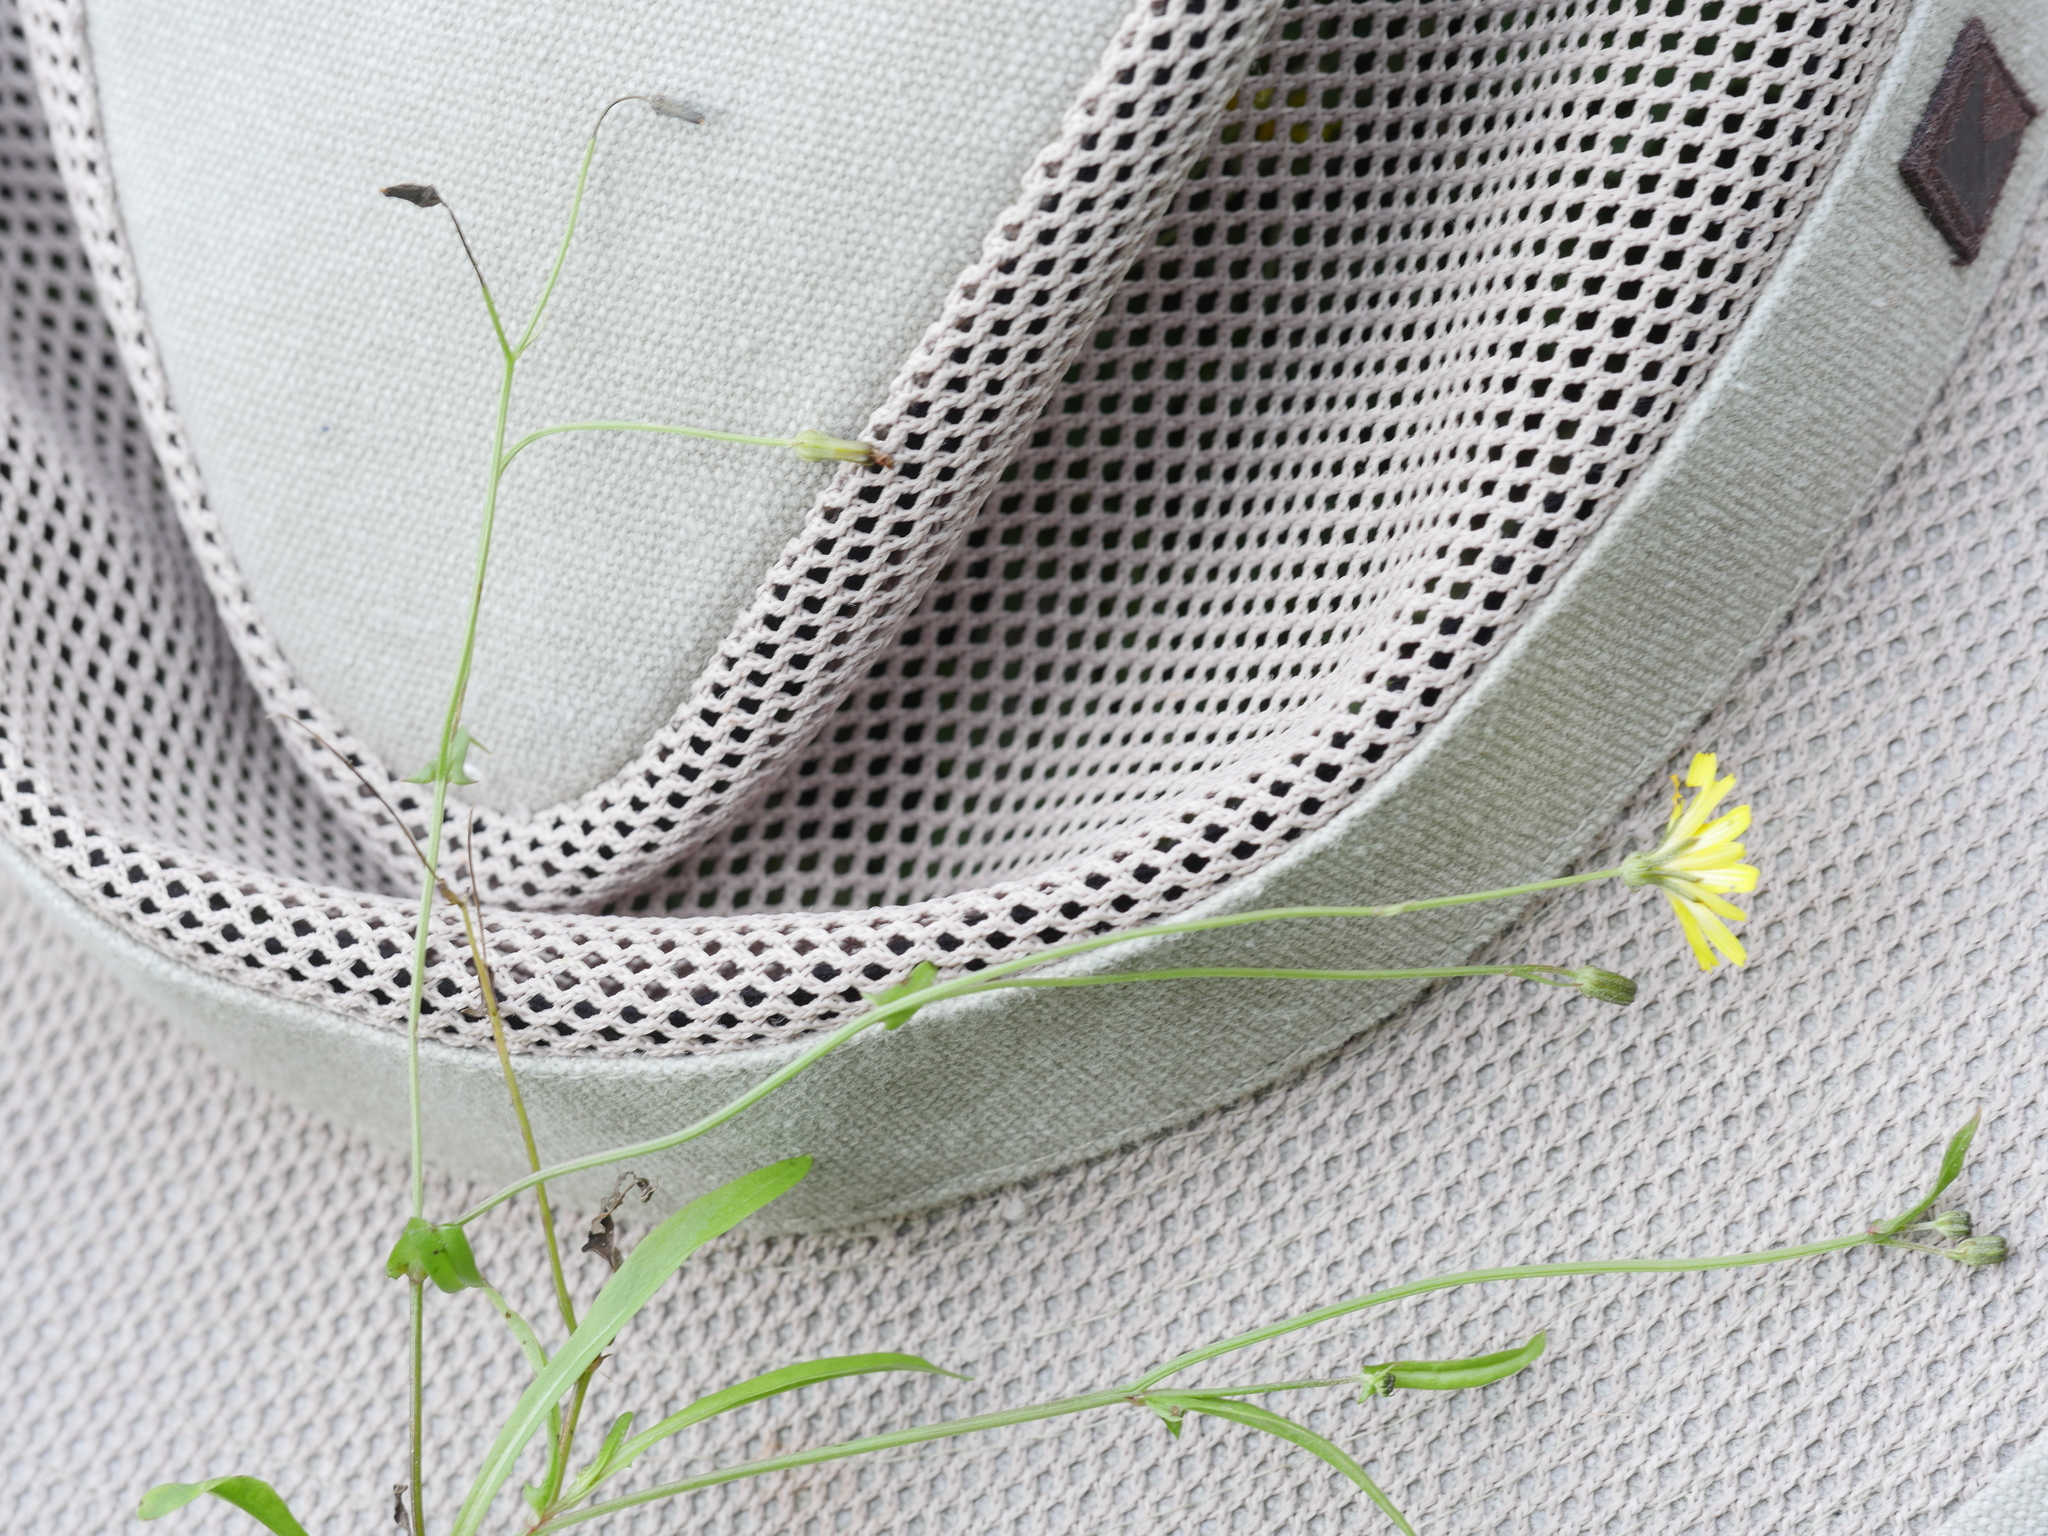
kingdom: Plantae
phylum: Tracheophyta
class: Magnoliopsida
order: Asterales
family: Asteraceae
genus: Crepis
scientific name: Crepis capillaris
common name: Smooth hawksbeard
